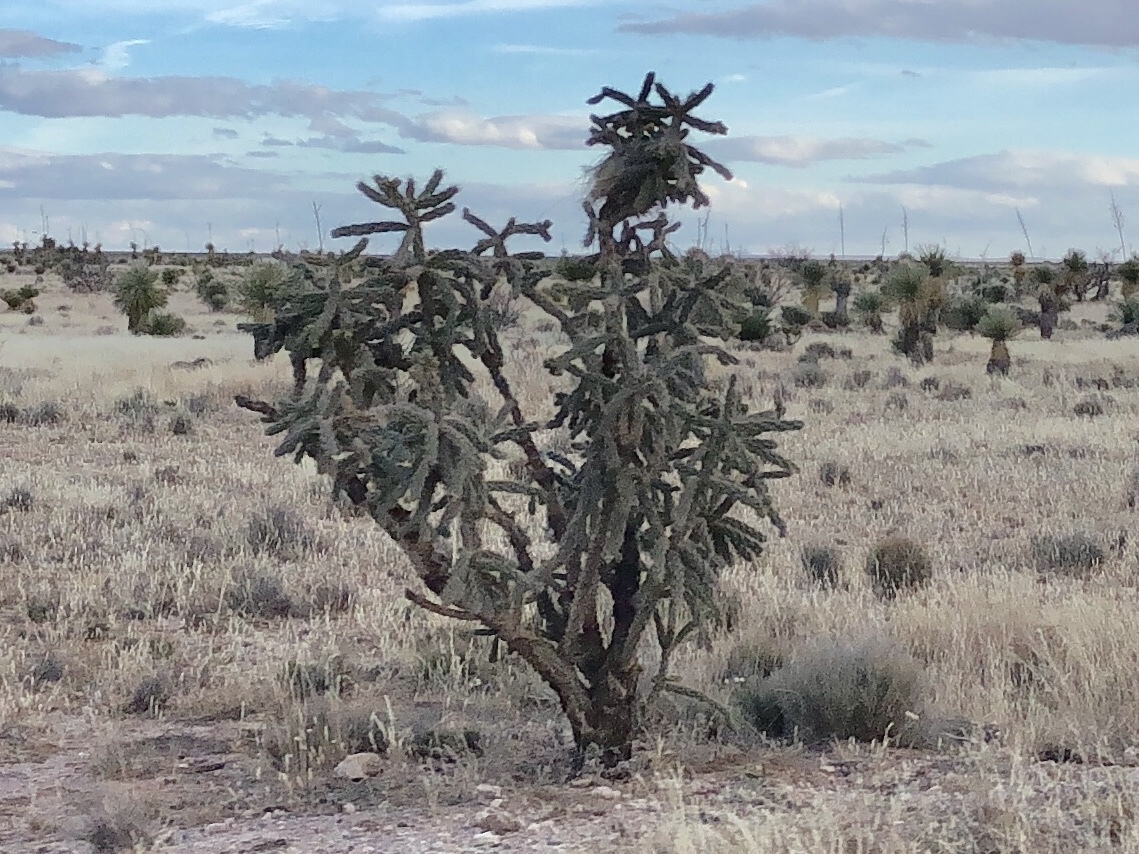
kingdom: Plantae
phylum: Tracheophyta
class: Magnoliopsida
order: Caryophyllales
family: Cactaceae
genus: Cylindropuntia
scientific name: Cylindropuntia imbricata
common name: Candelabrum cactus
